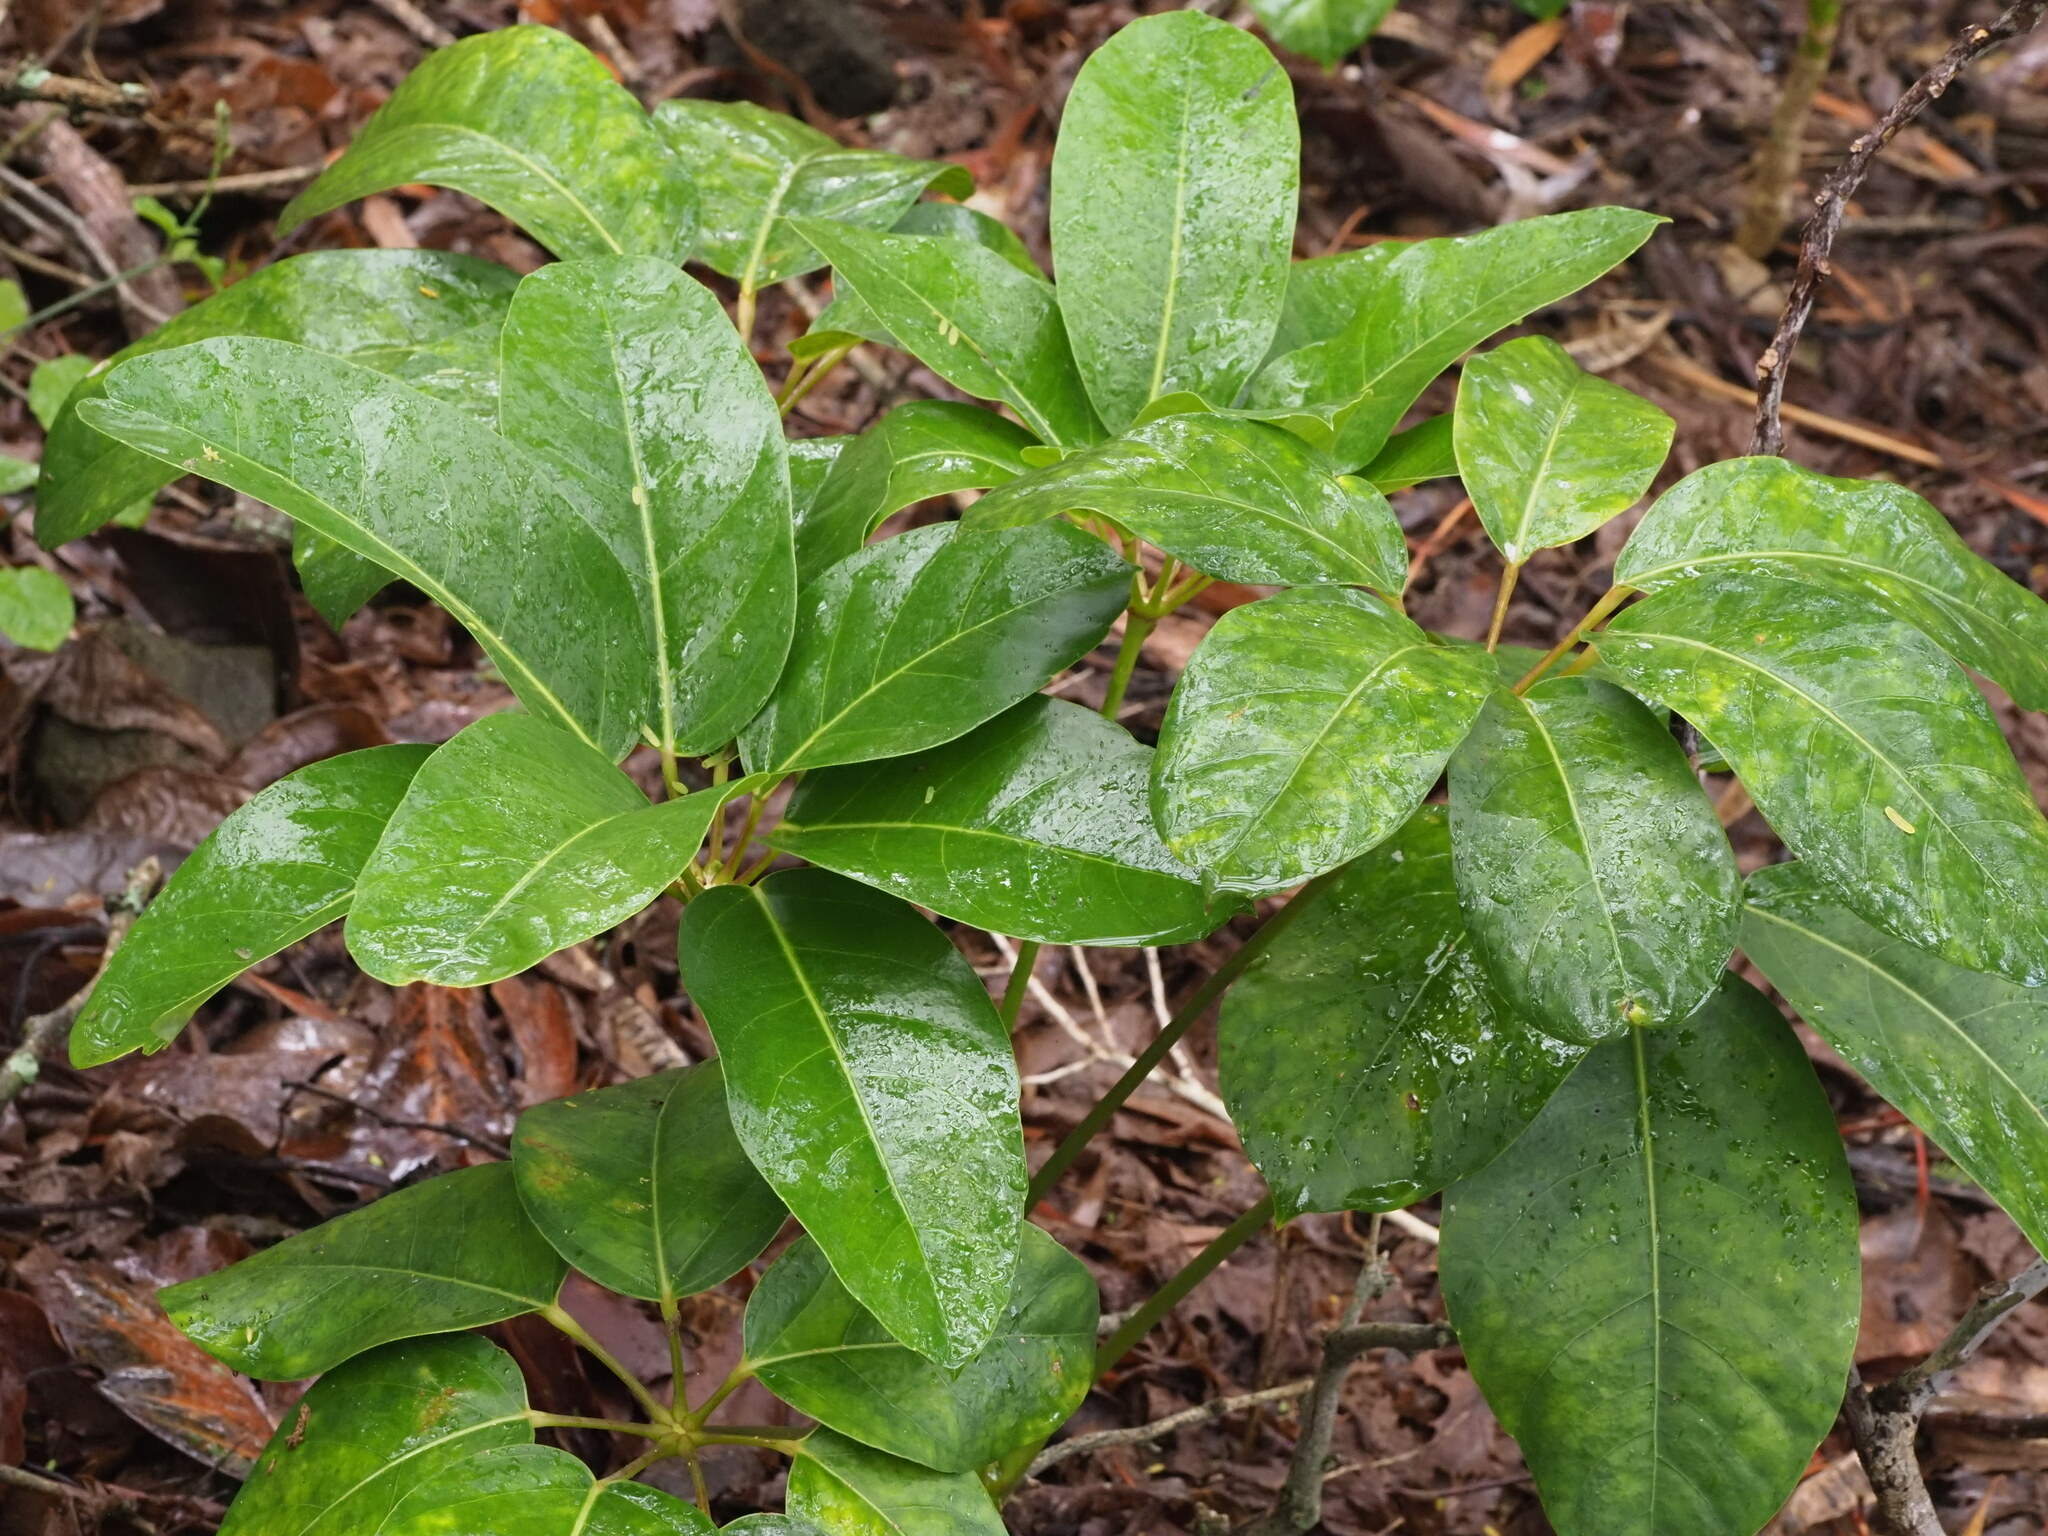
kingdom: Plantae
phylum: Tracheophyta
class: Magnoliopsida
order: Apiales
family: Araliaceae
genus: Heptapleurum
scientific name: Heptapleurum actinophyllum
